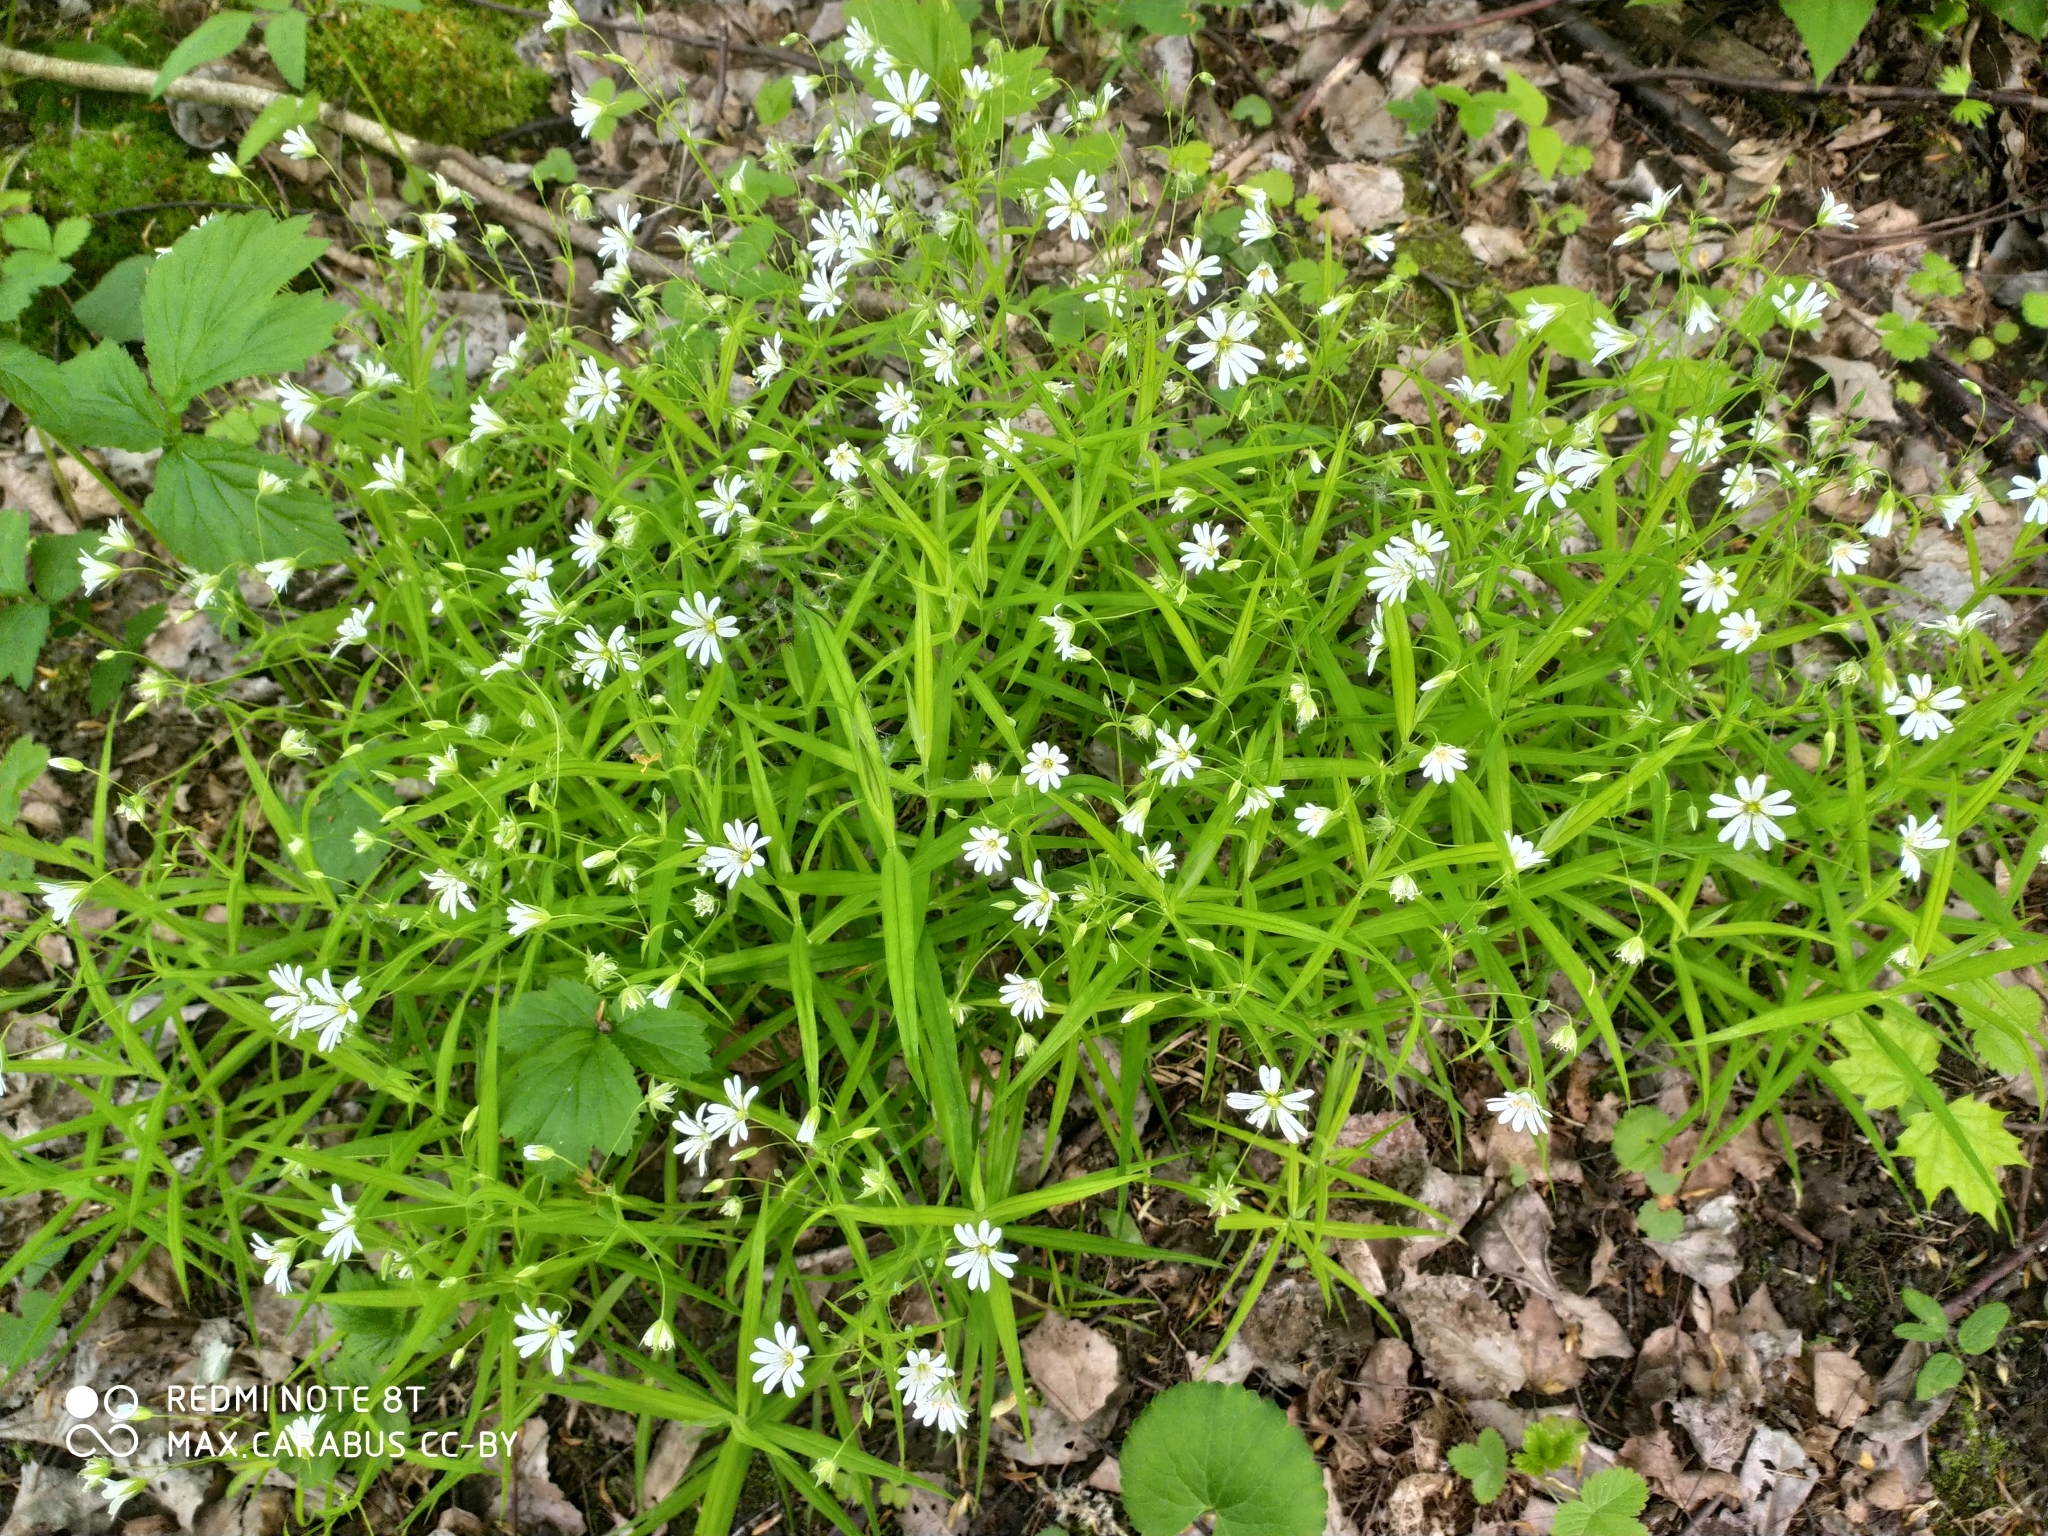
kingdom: Plantae
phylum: Tracheophyta
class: Magnoliopsida
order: Caryophyllales
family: Caryophyllaceae
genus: Rabelera
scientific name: Rabelera holostea
